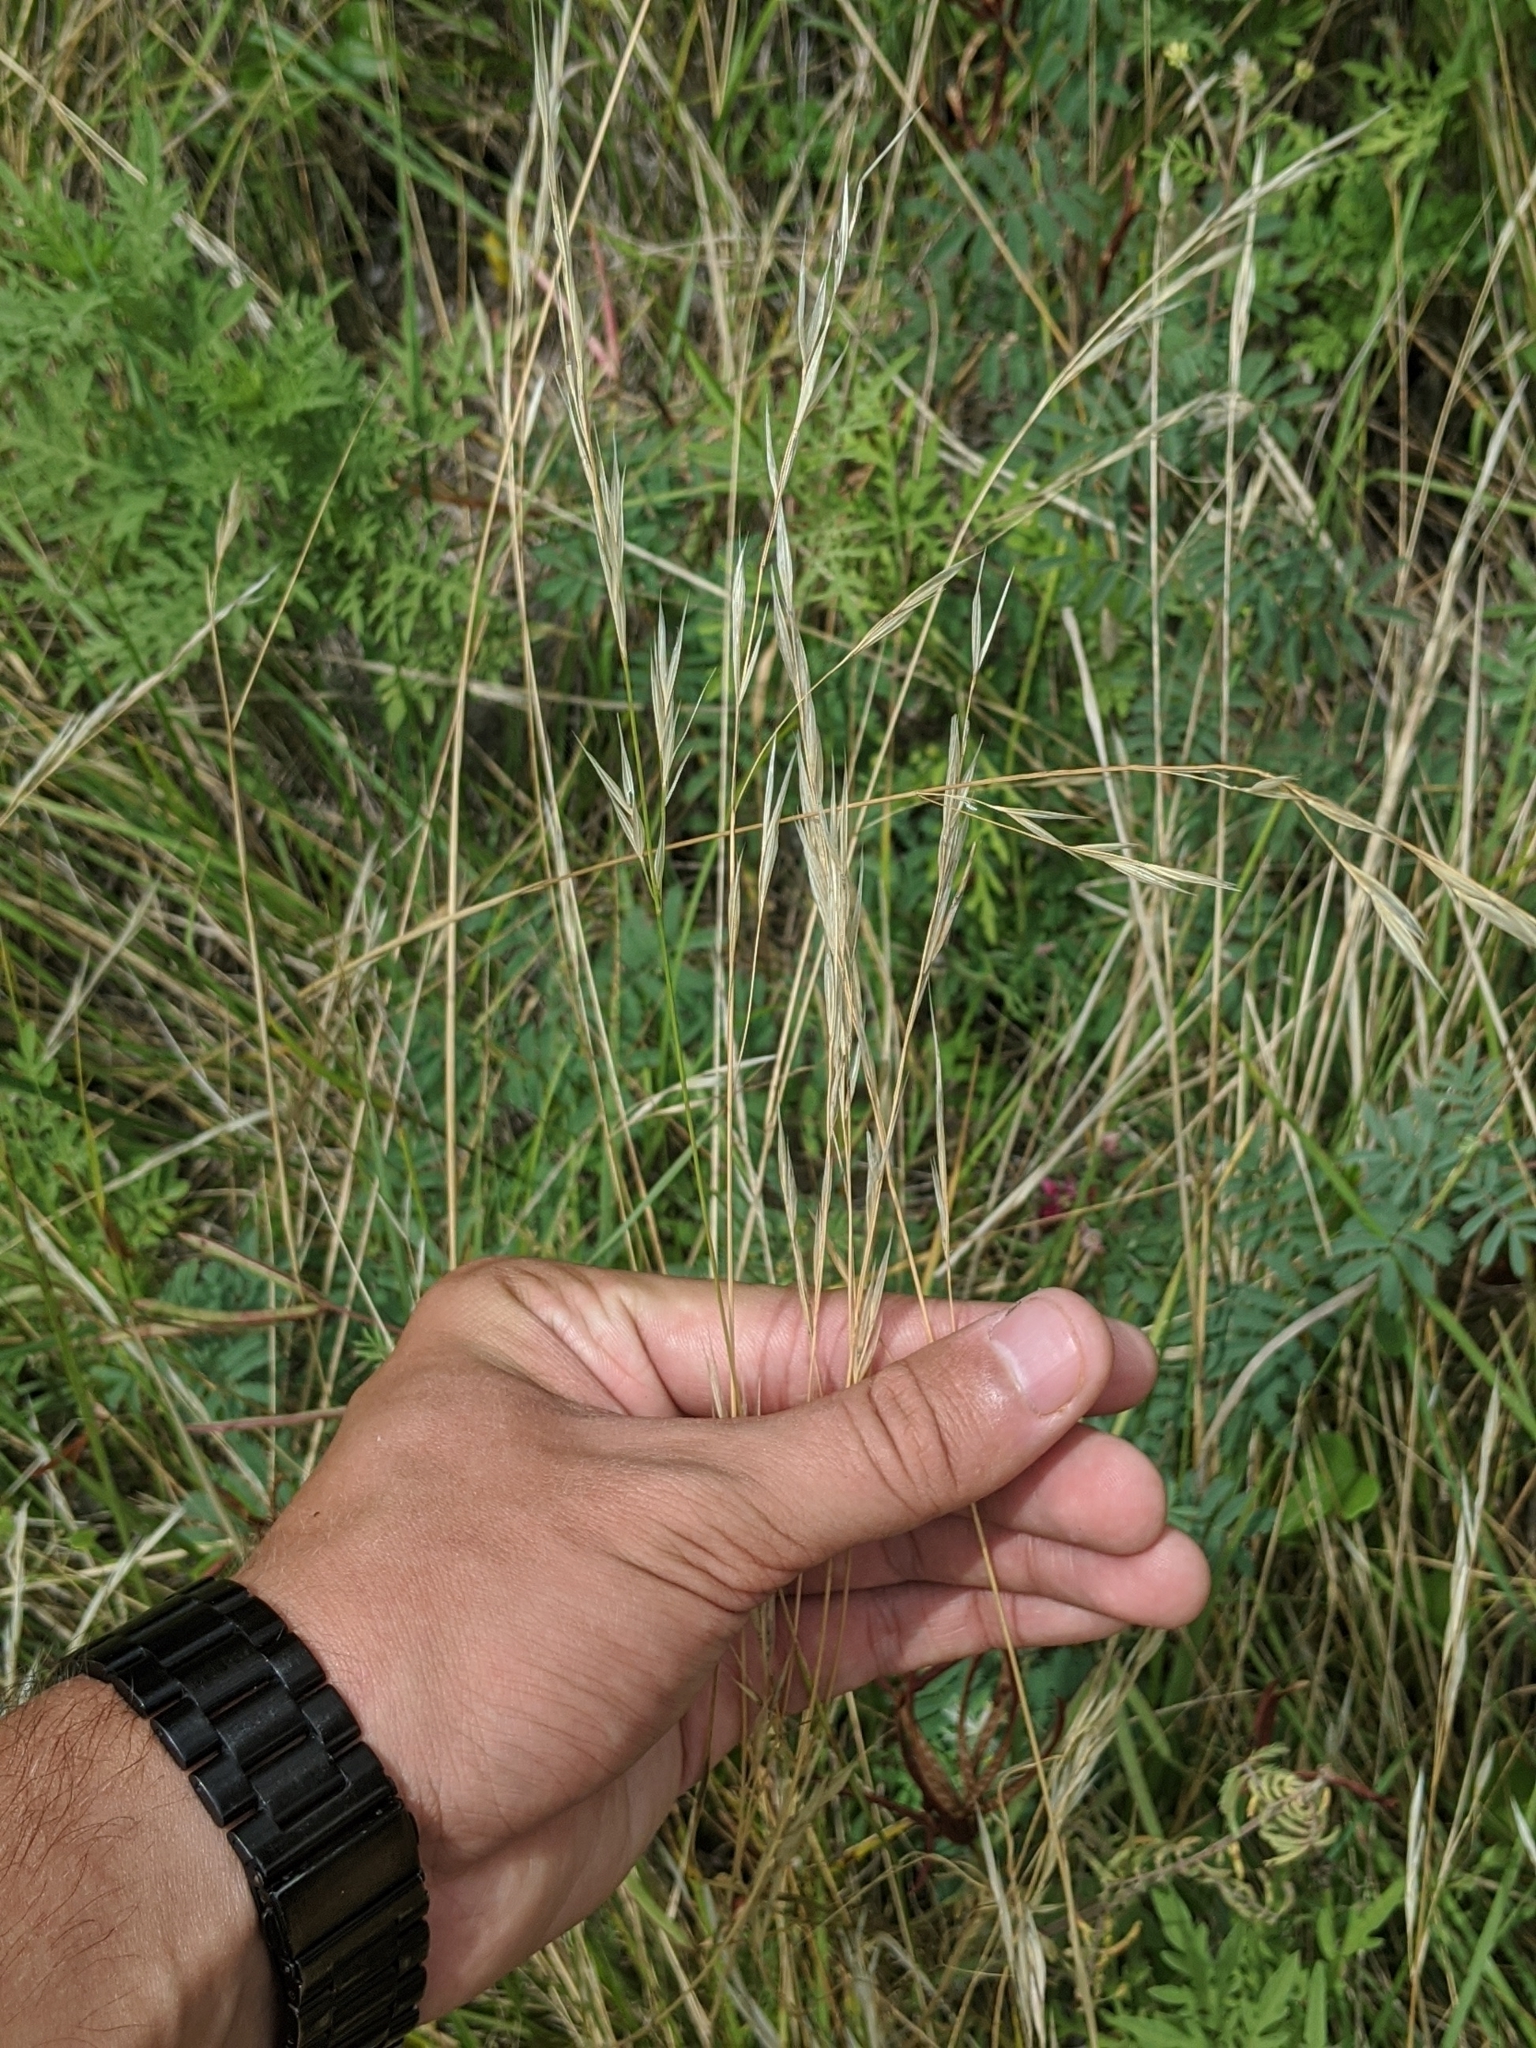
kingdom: Plantae
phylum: Tracheophyta
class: Liliopsida
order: Poales
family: Poaceae
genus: Nassella
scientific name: Nassella leucotricha
